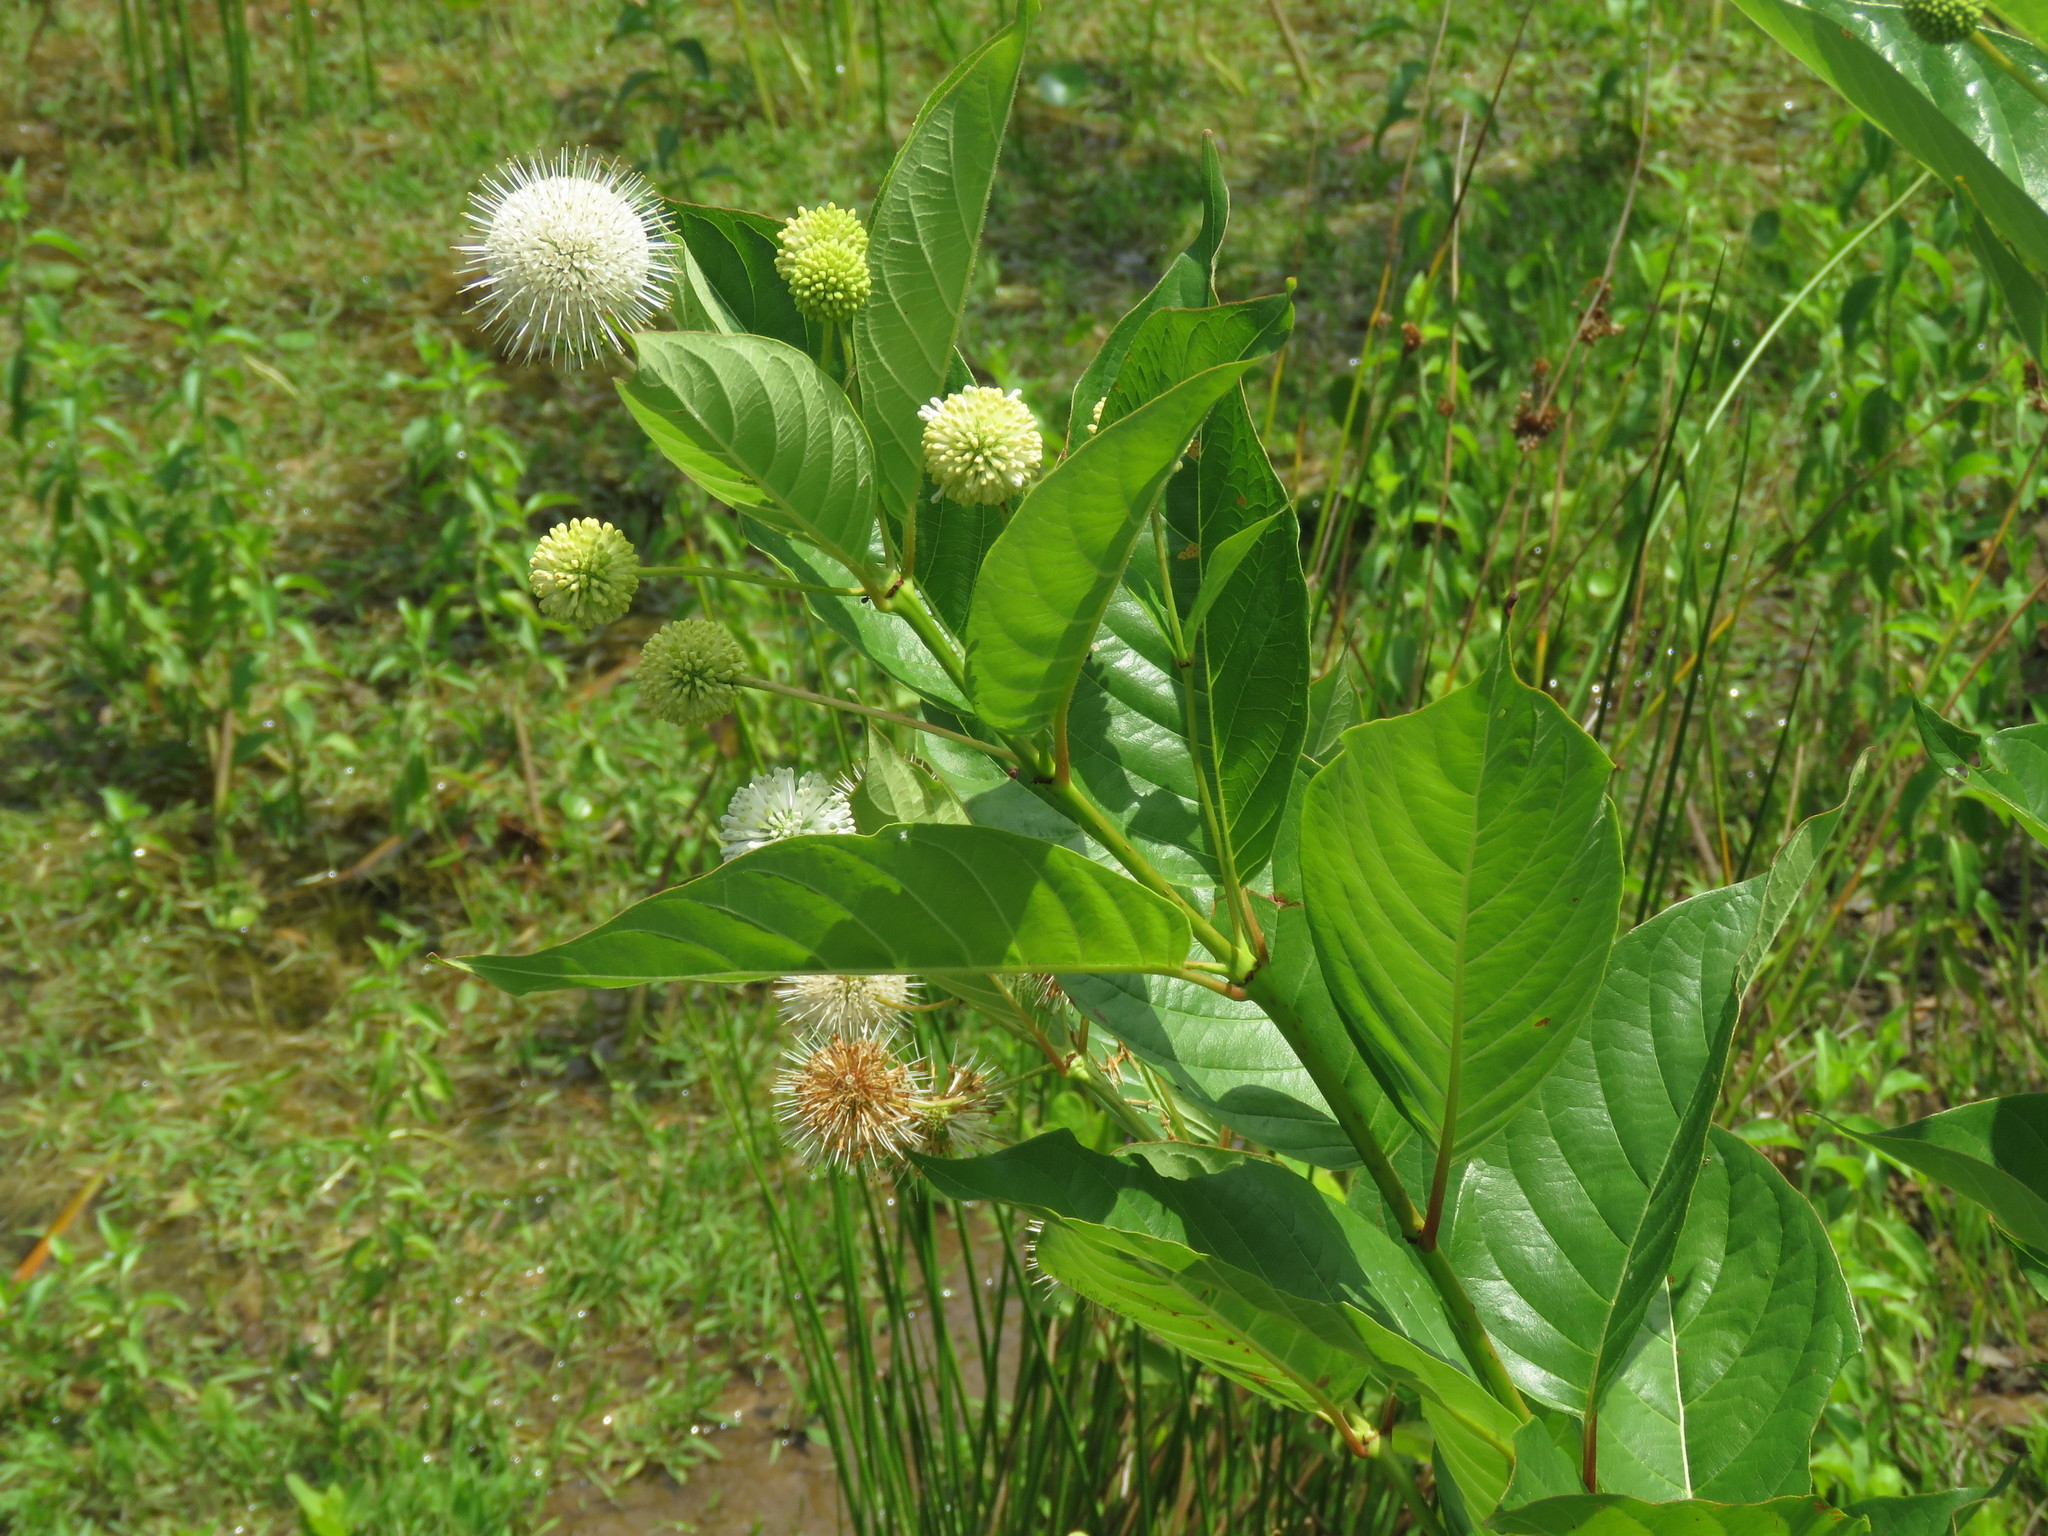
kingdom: Plantae
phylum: Tracheophyta
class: Magnoliopsida
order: Gentianales
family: Rubiaceae
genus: Cephalanthus
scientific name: Cephalanthus occidentalis
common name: Button-willow
